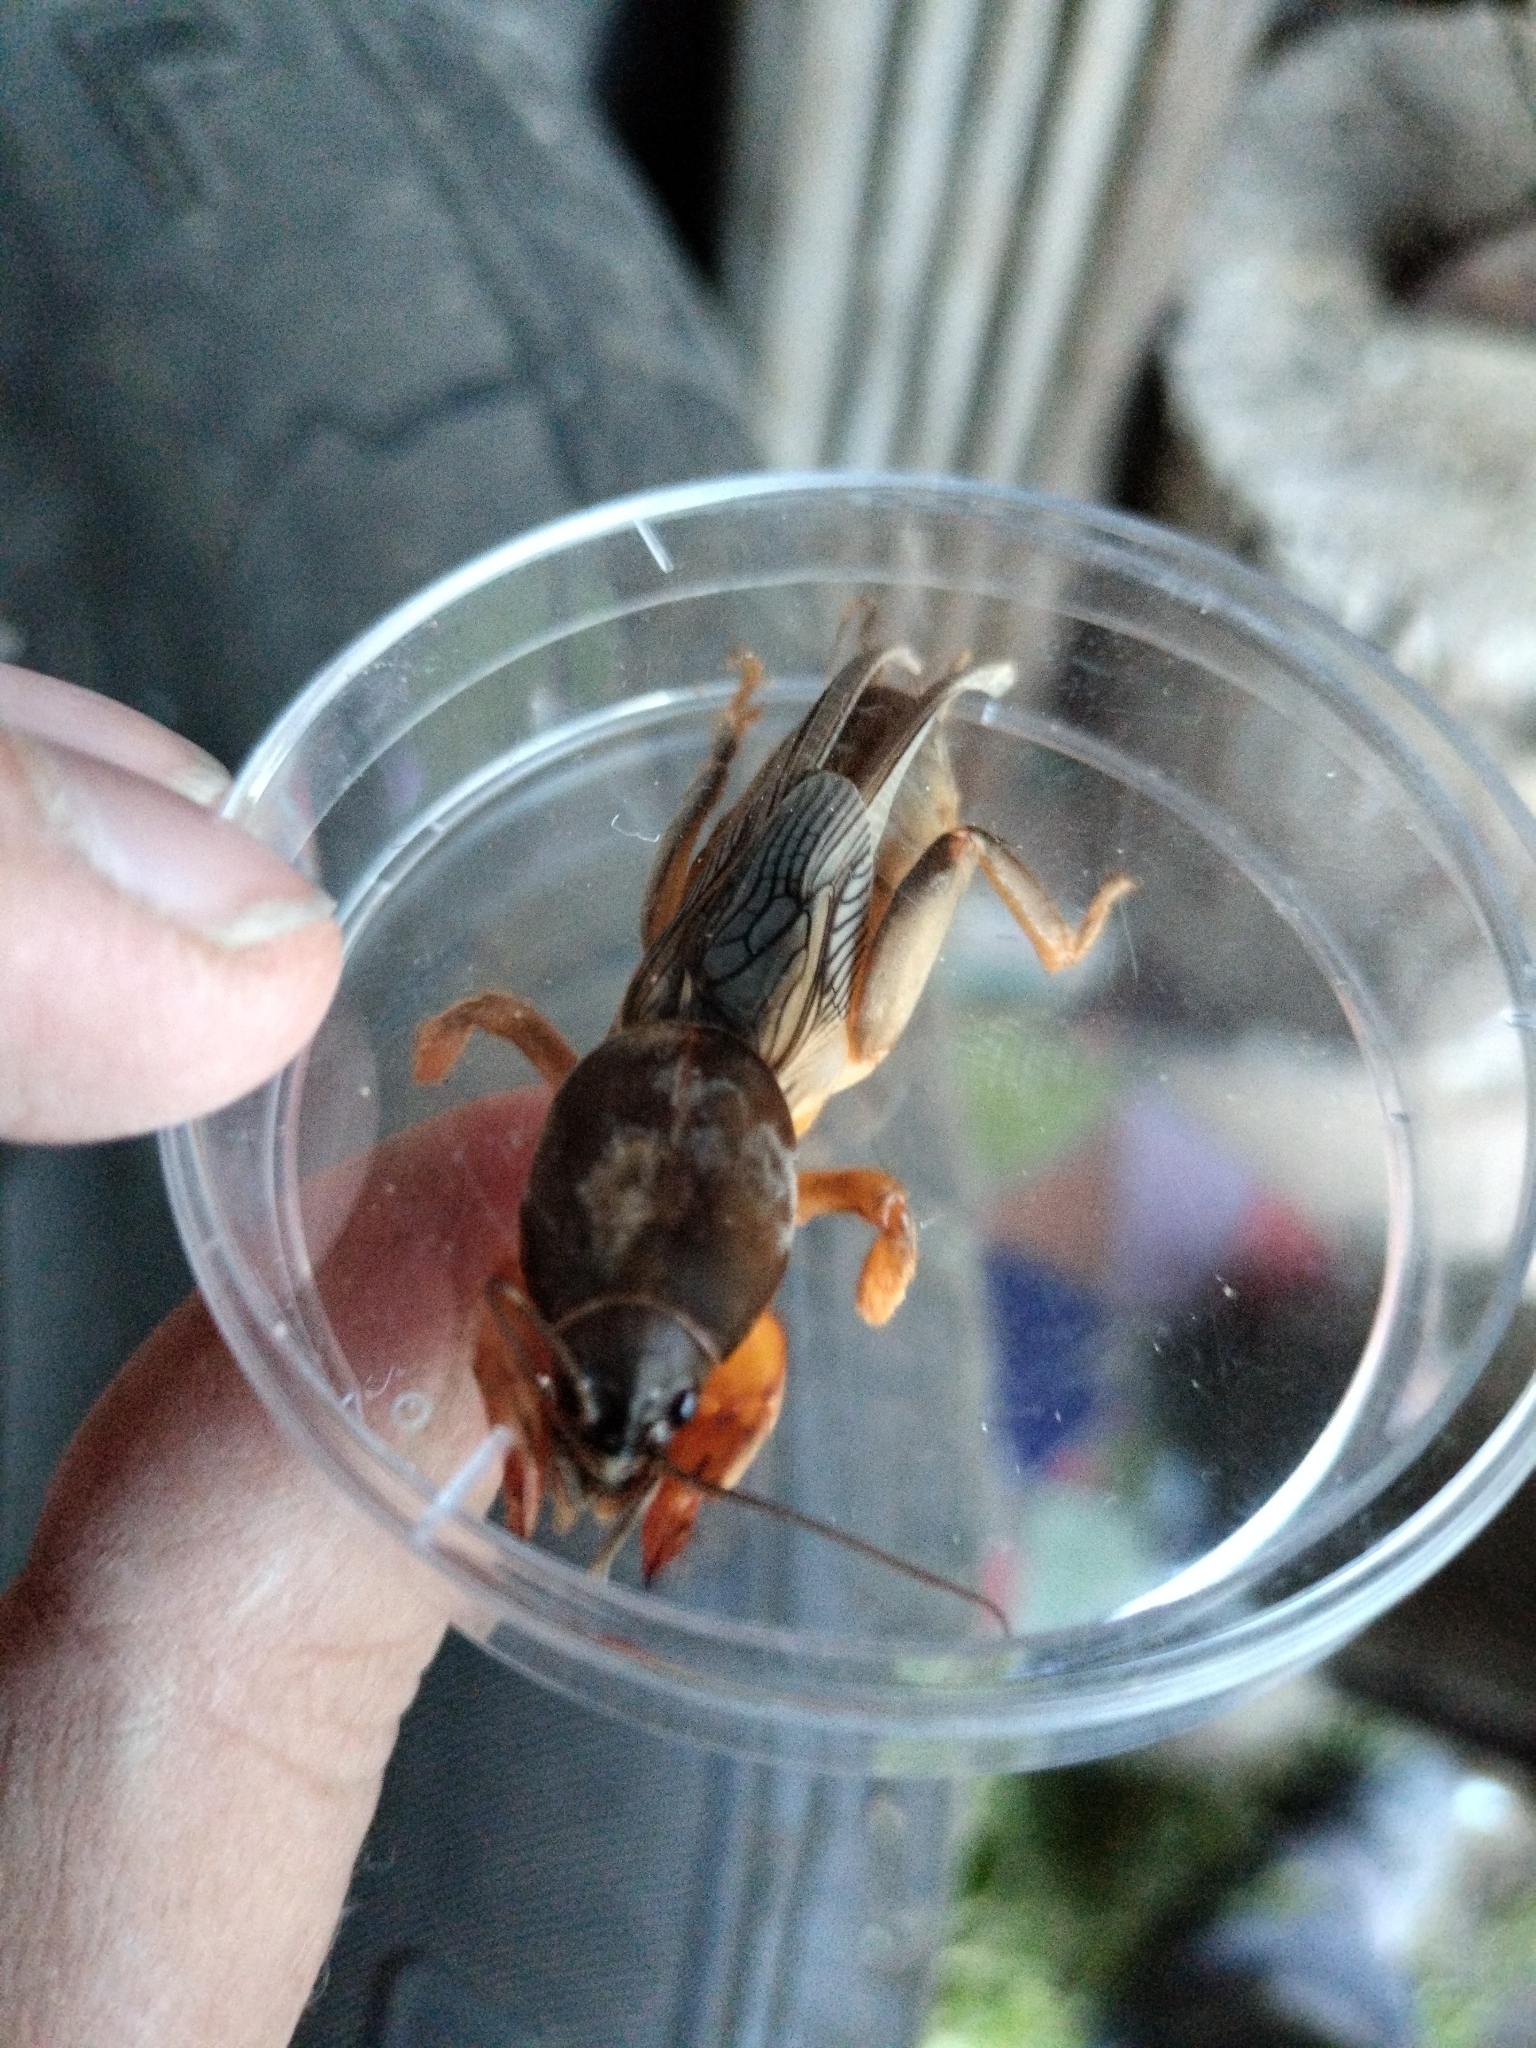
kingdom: Animalia
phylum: Arthropoda
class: Insecta
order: Orthoptera
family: Gryllotalpidae
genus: Gryllotalpa
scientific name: Gryllotalpa gryllotalpa
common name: European mole cricket
